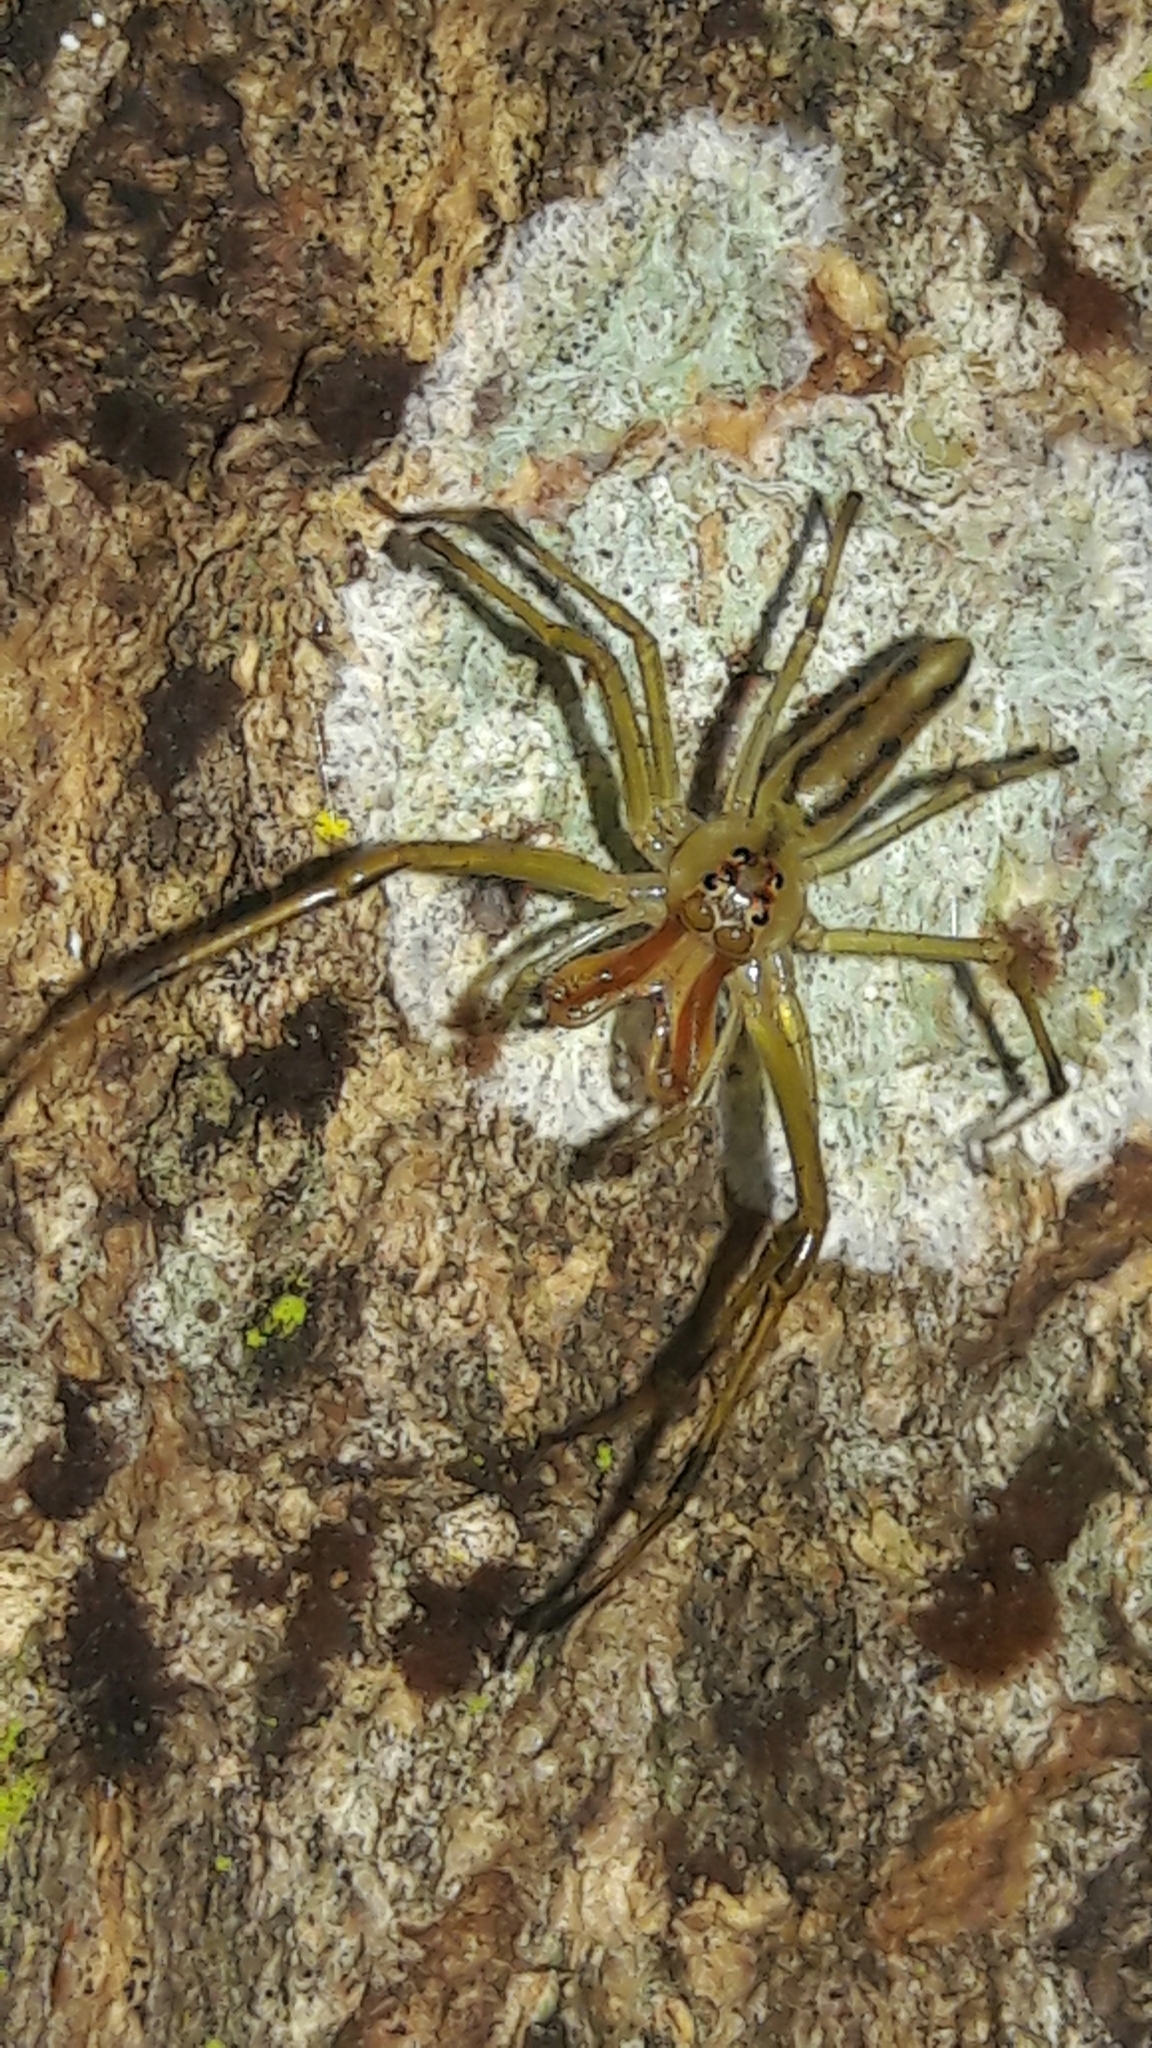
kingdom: Animalia
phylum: Arthropoda
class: Arachnida
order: Araneae
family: Salticidae
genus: Lyssomanes
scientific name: Lyssomanes bitaeniatus
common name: Jumping spiders
